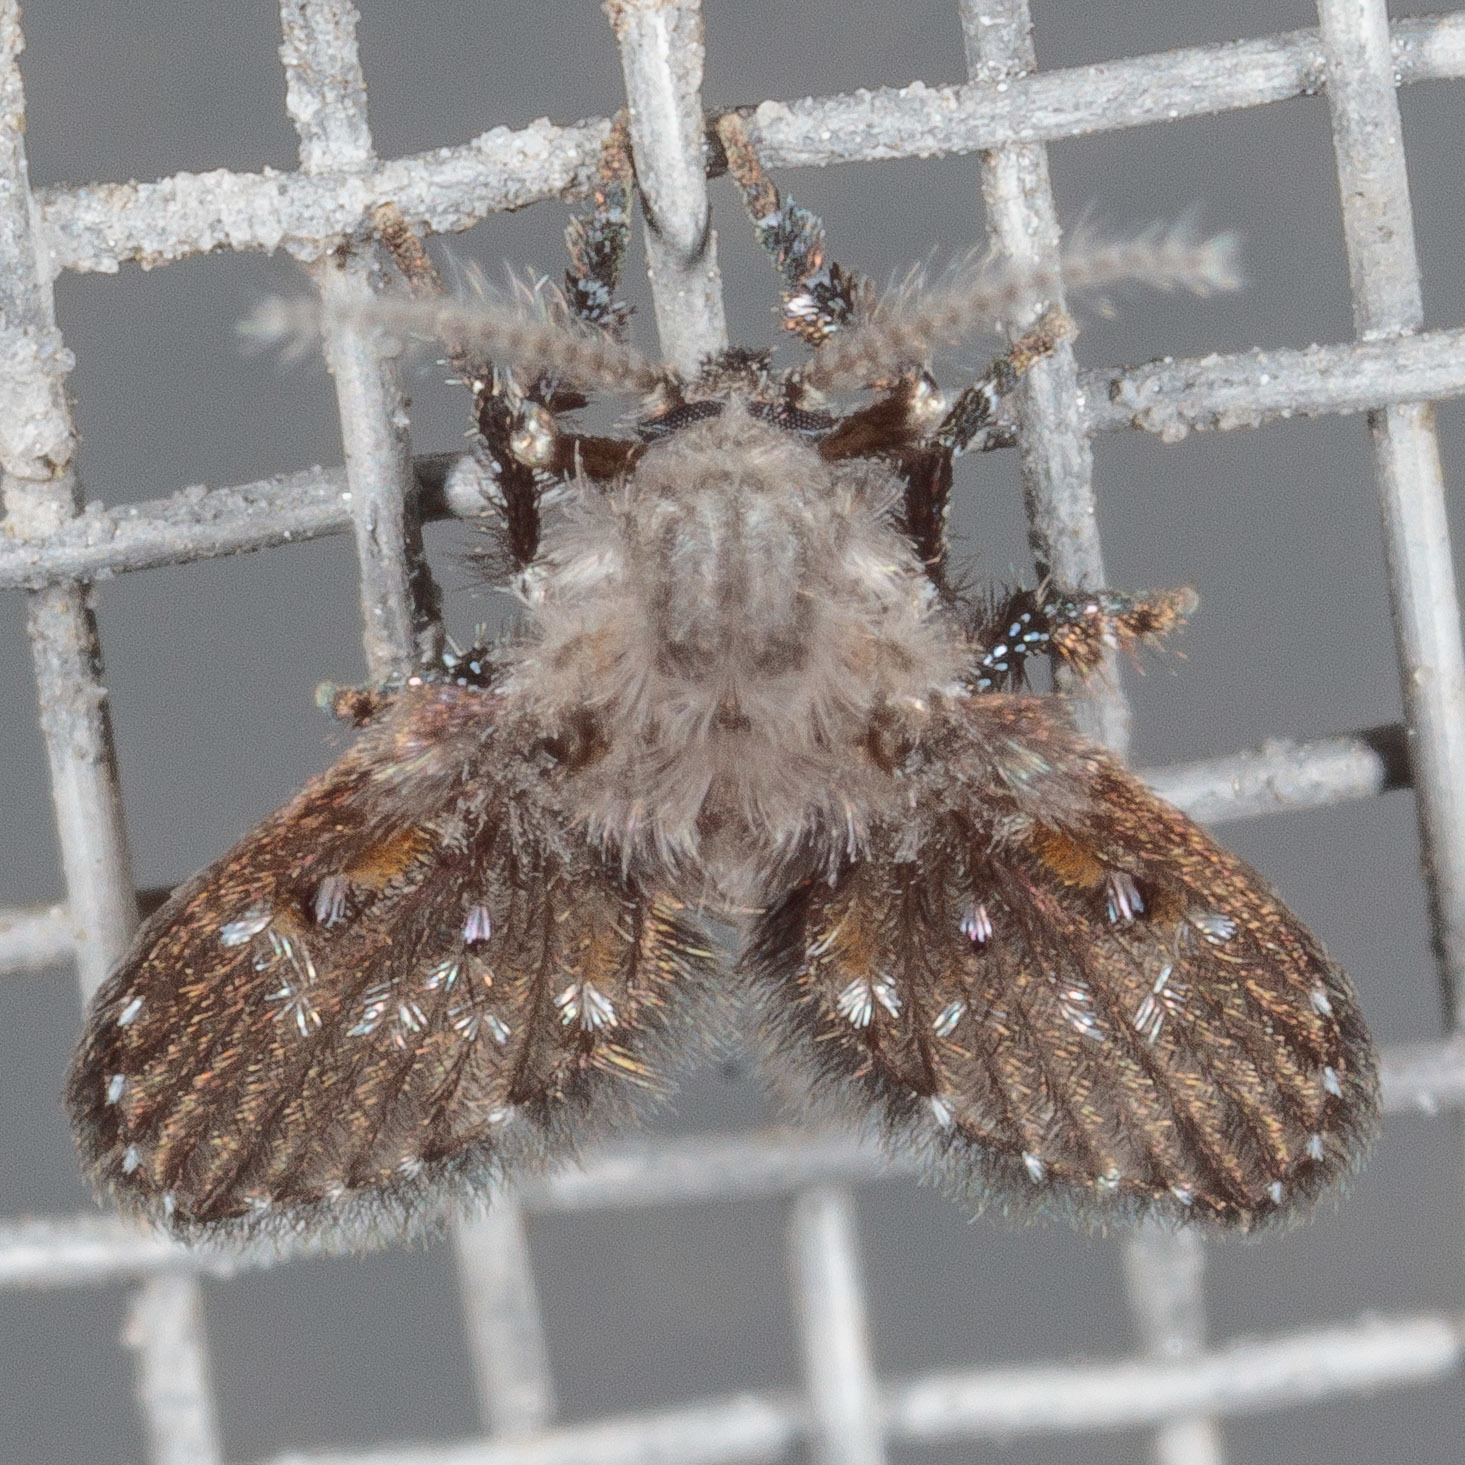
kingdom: Animalia
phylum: Arthropoda
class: Insecta
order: Diptera
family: Psychodidae
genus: Clogmia
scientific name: Clogmia albipunctatus
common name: White-spotted moth fly
